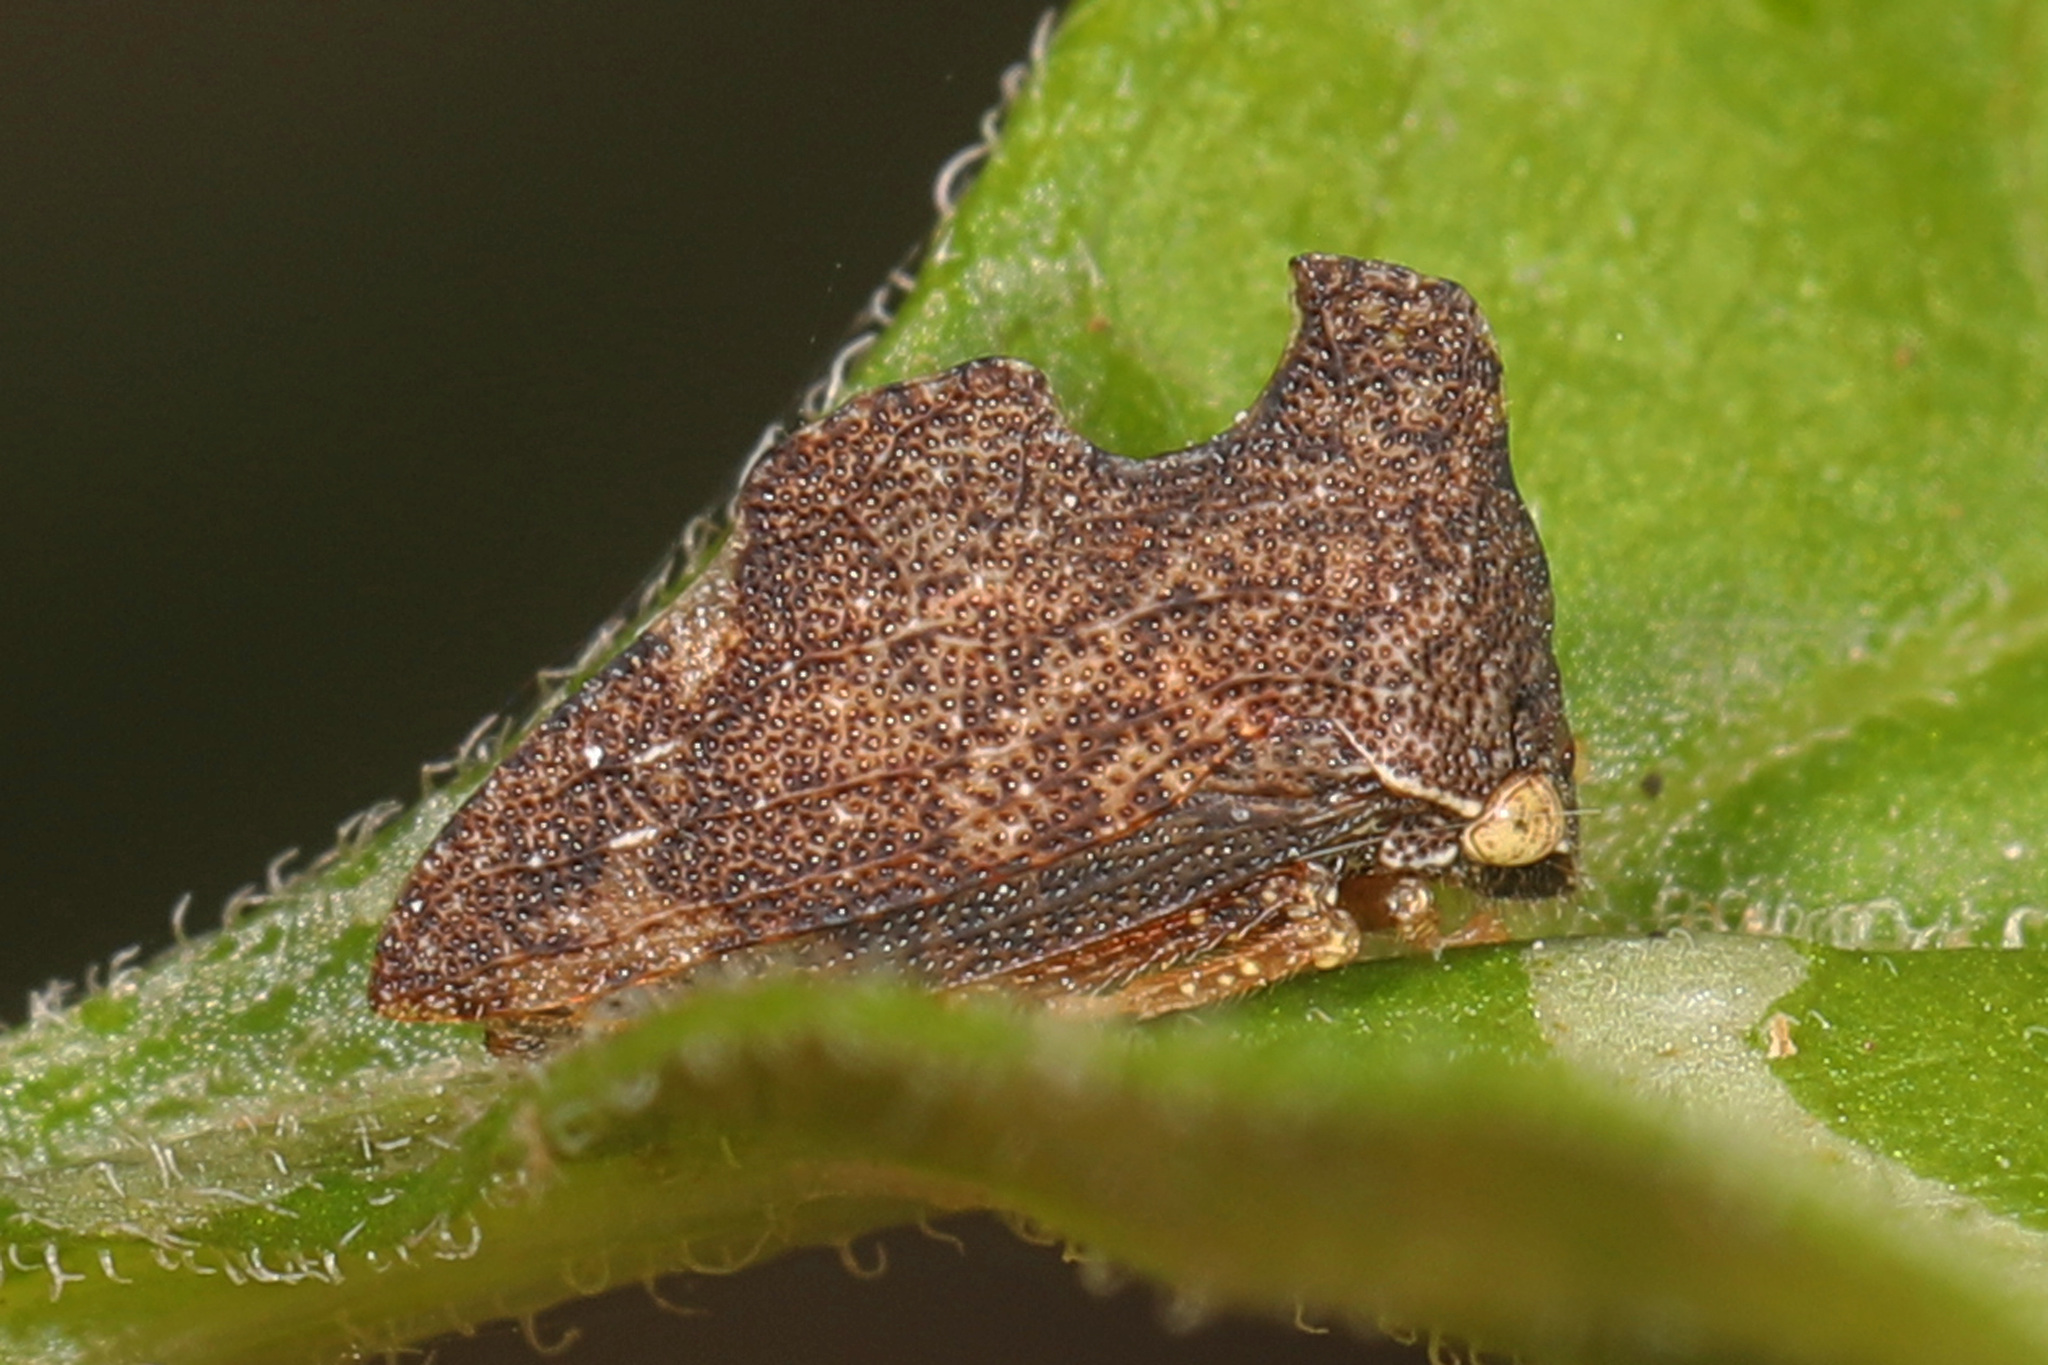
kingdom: Animalia
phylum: Arthropoda
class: Insecta
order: Hemiptera
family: Membracidae
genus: Entylia
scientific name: Entylia carinata
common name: Keeled treehopper
